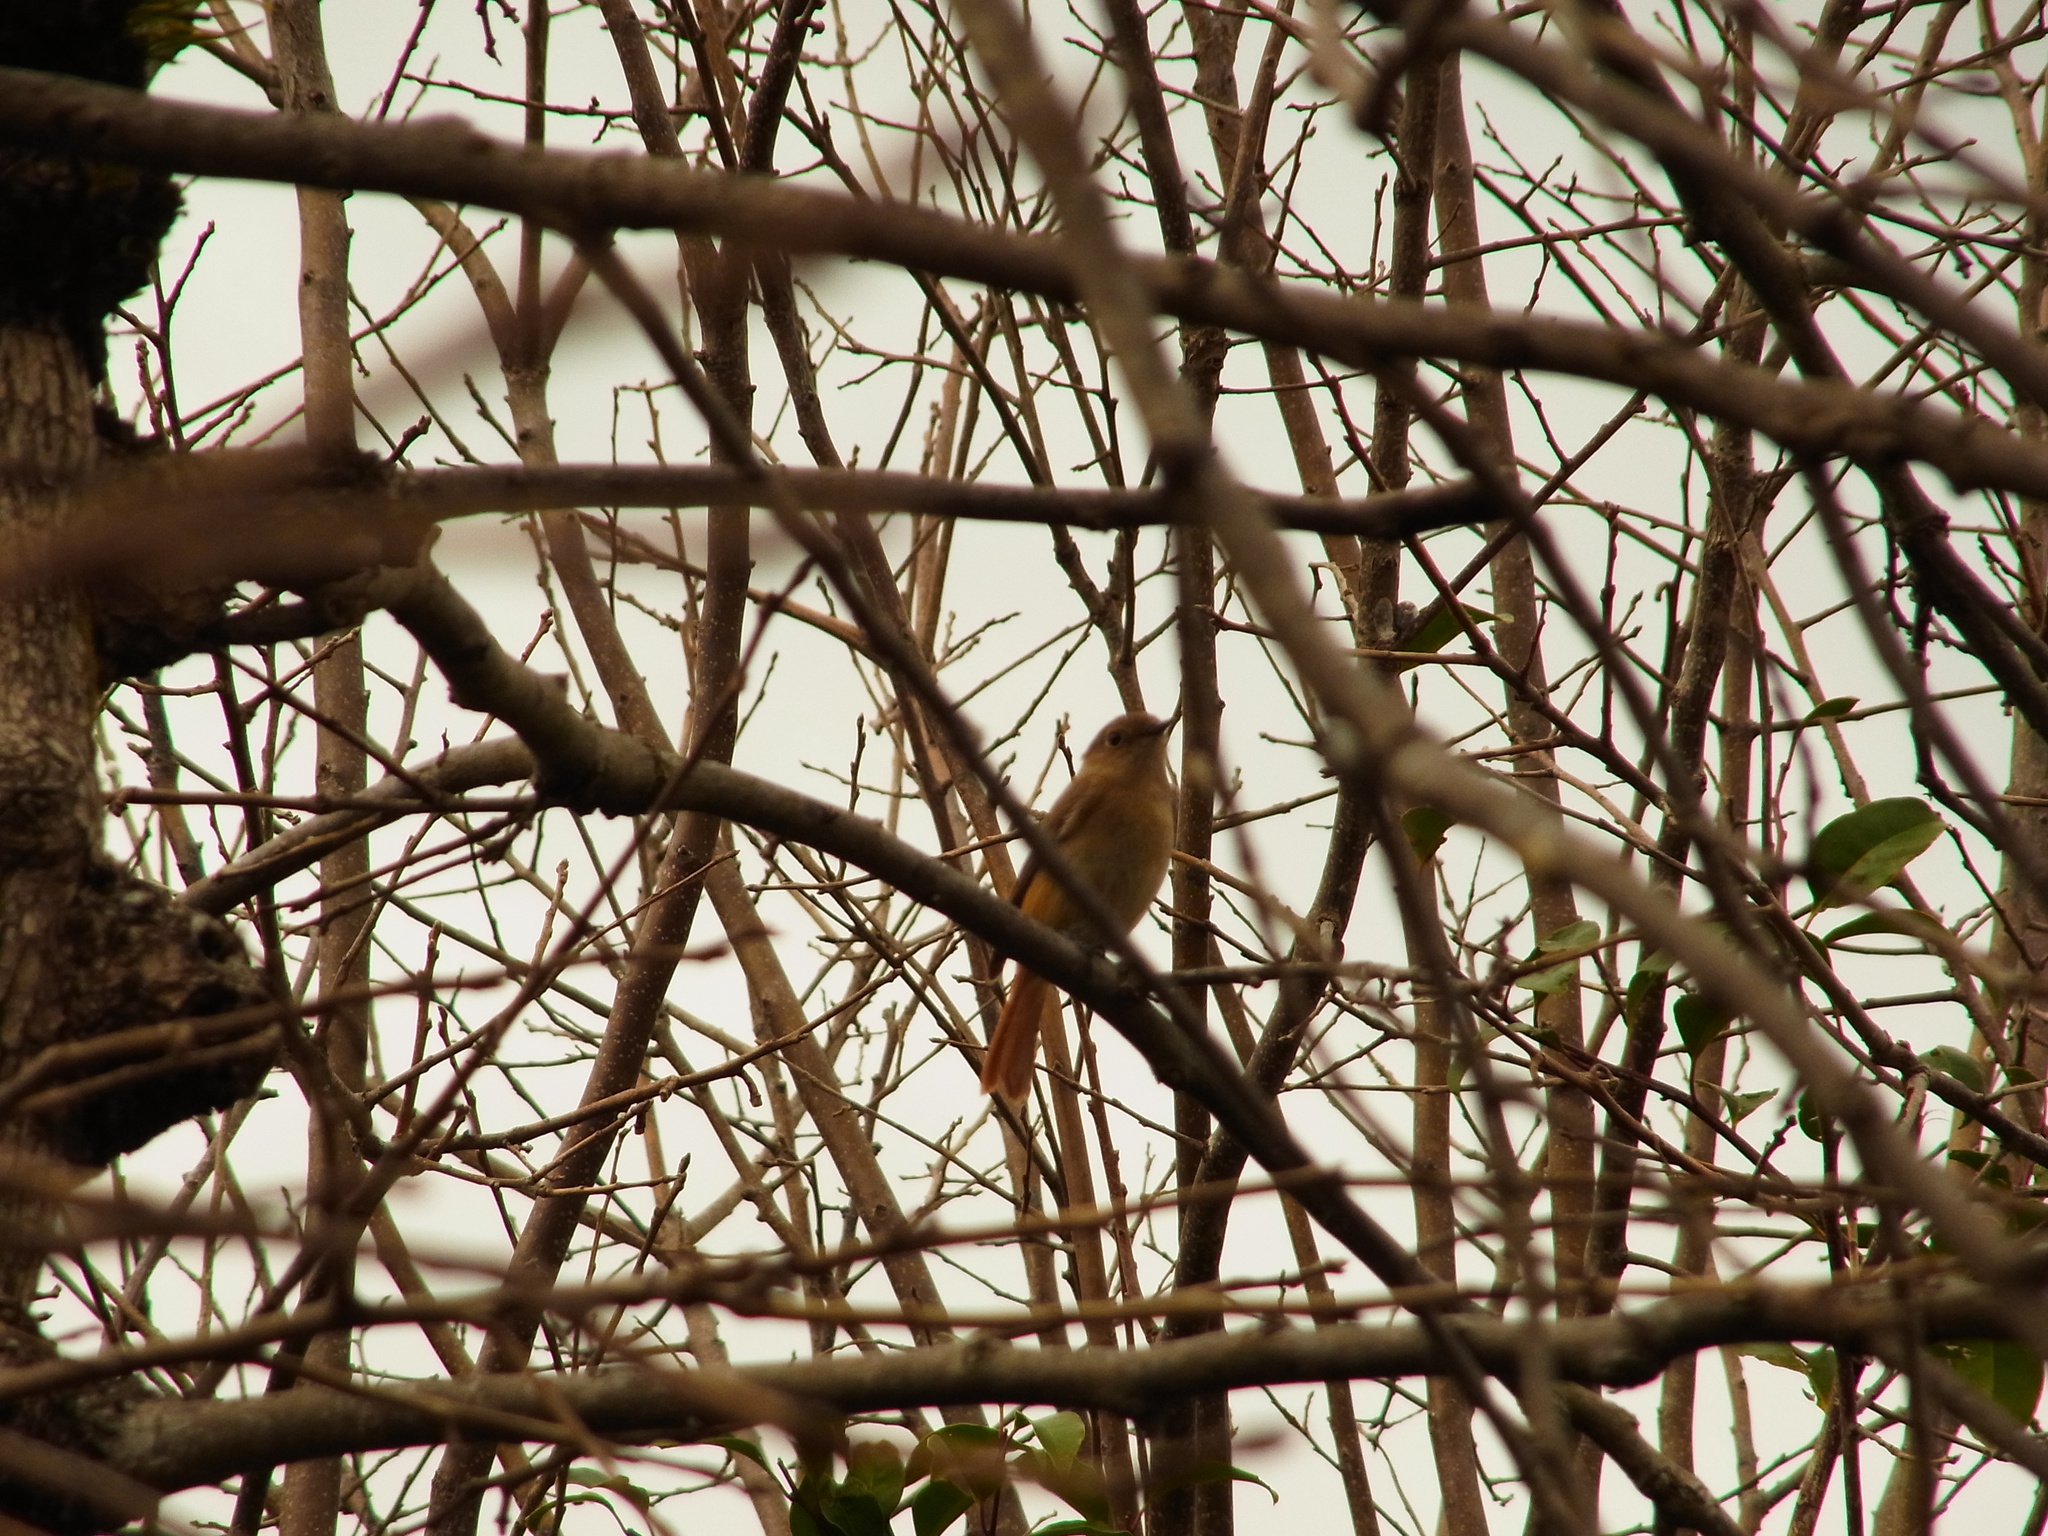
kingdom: Animalia
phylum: Chordata
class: Aves
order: Passeriformes
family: Muscicapidae
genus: Phoenicurus
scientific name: Phoenicurus auroreus
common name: Daurian redstart
